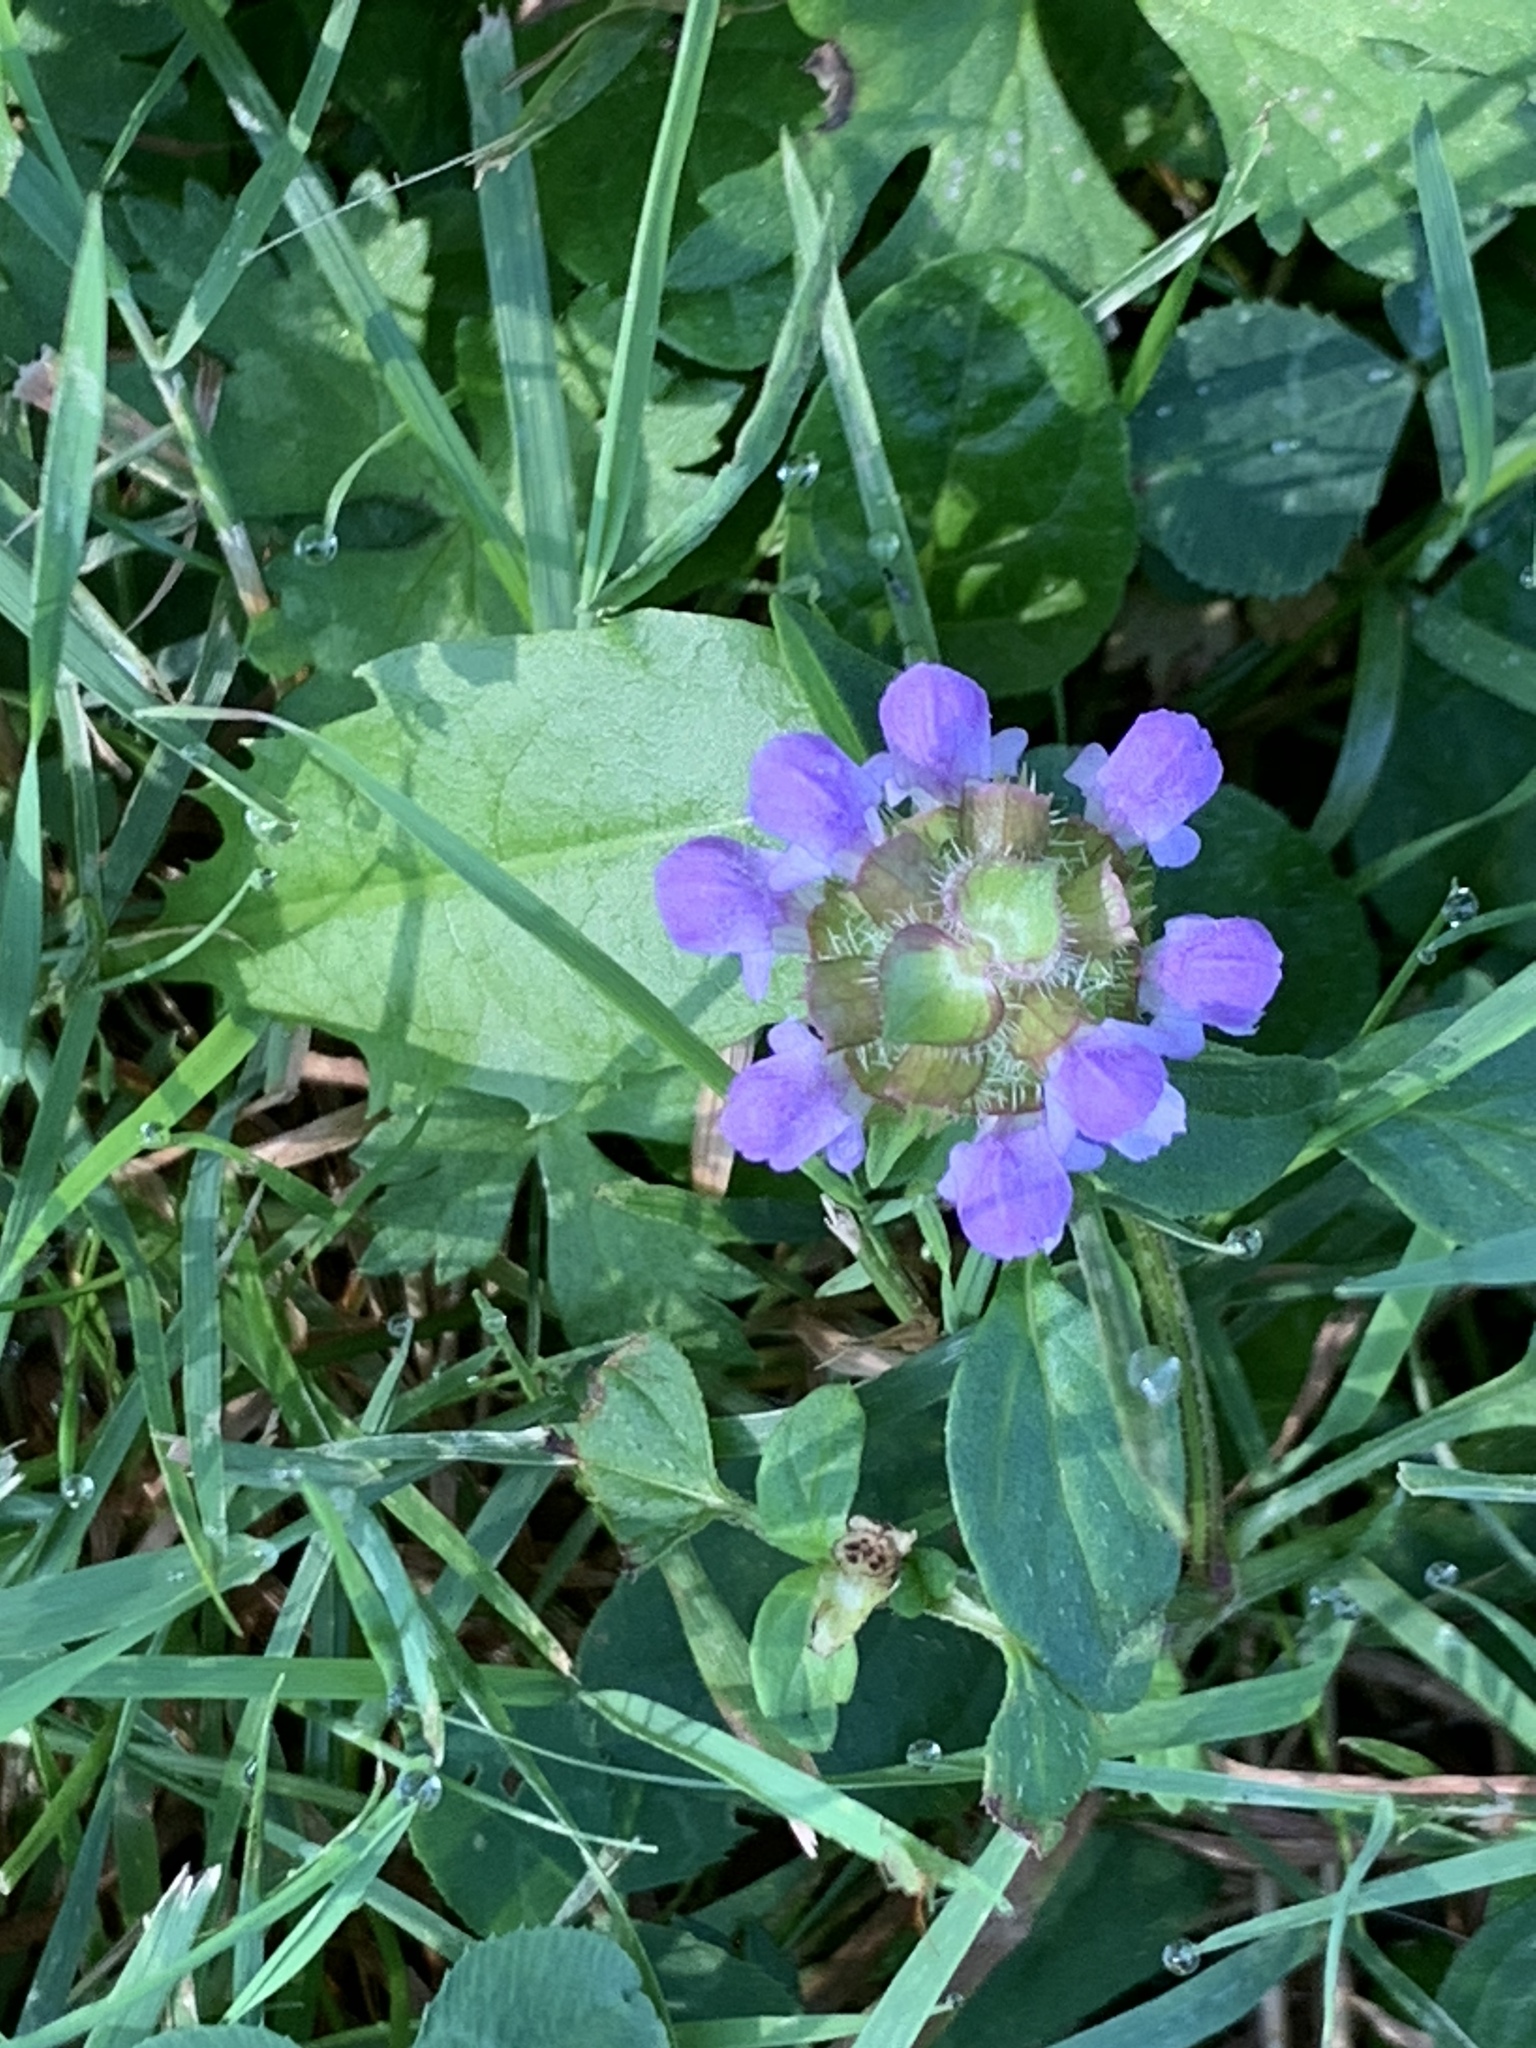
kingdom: Plantae
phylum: Tracheophyta
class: Magnoliopsida
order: Lamiales
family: Lamiaceae
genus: Prunella
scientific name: Prunella vulgaris
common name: Heal-all
